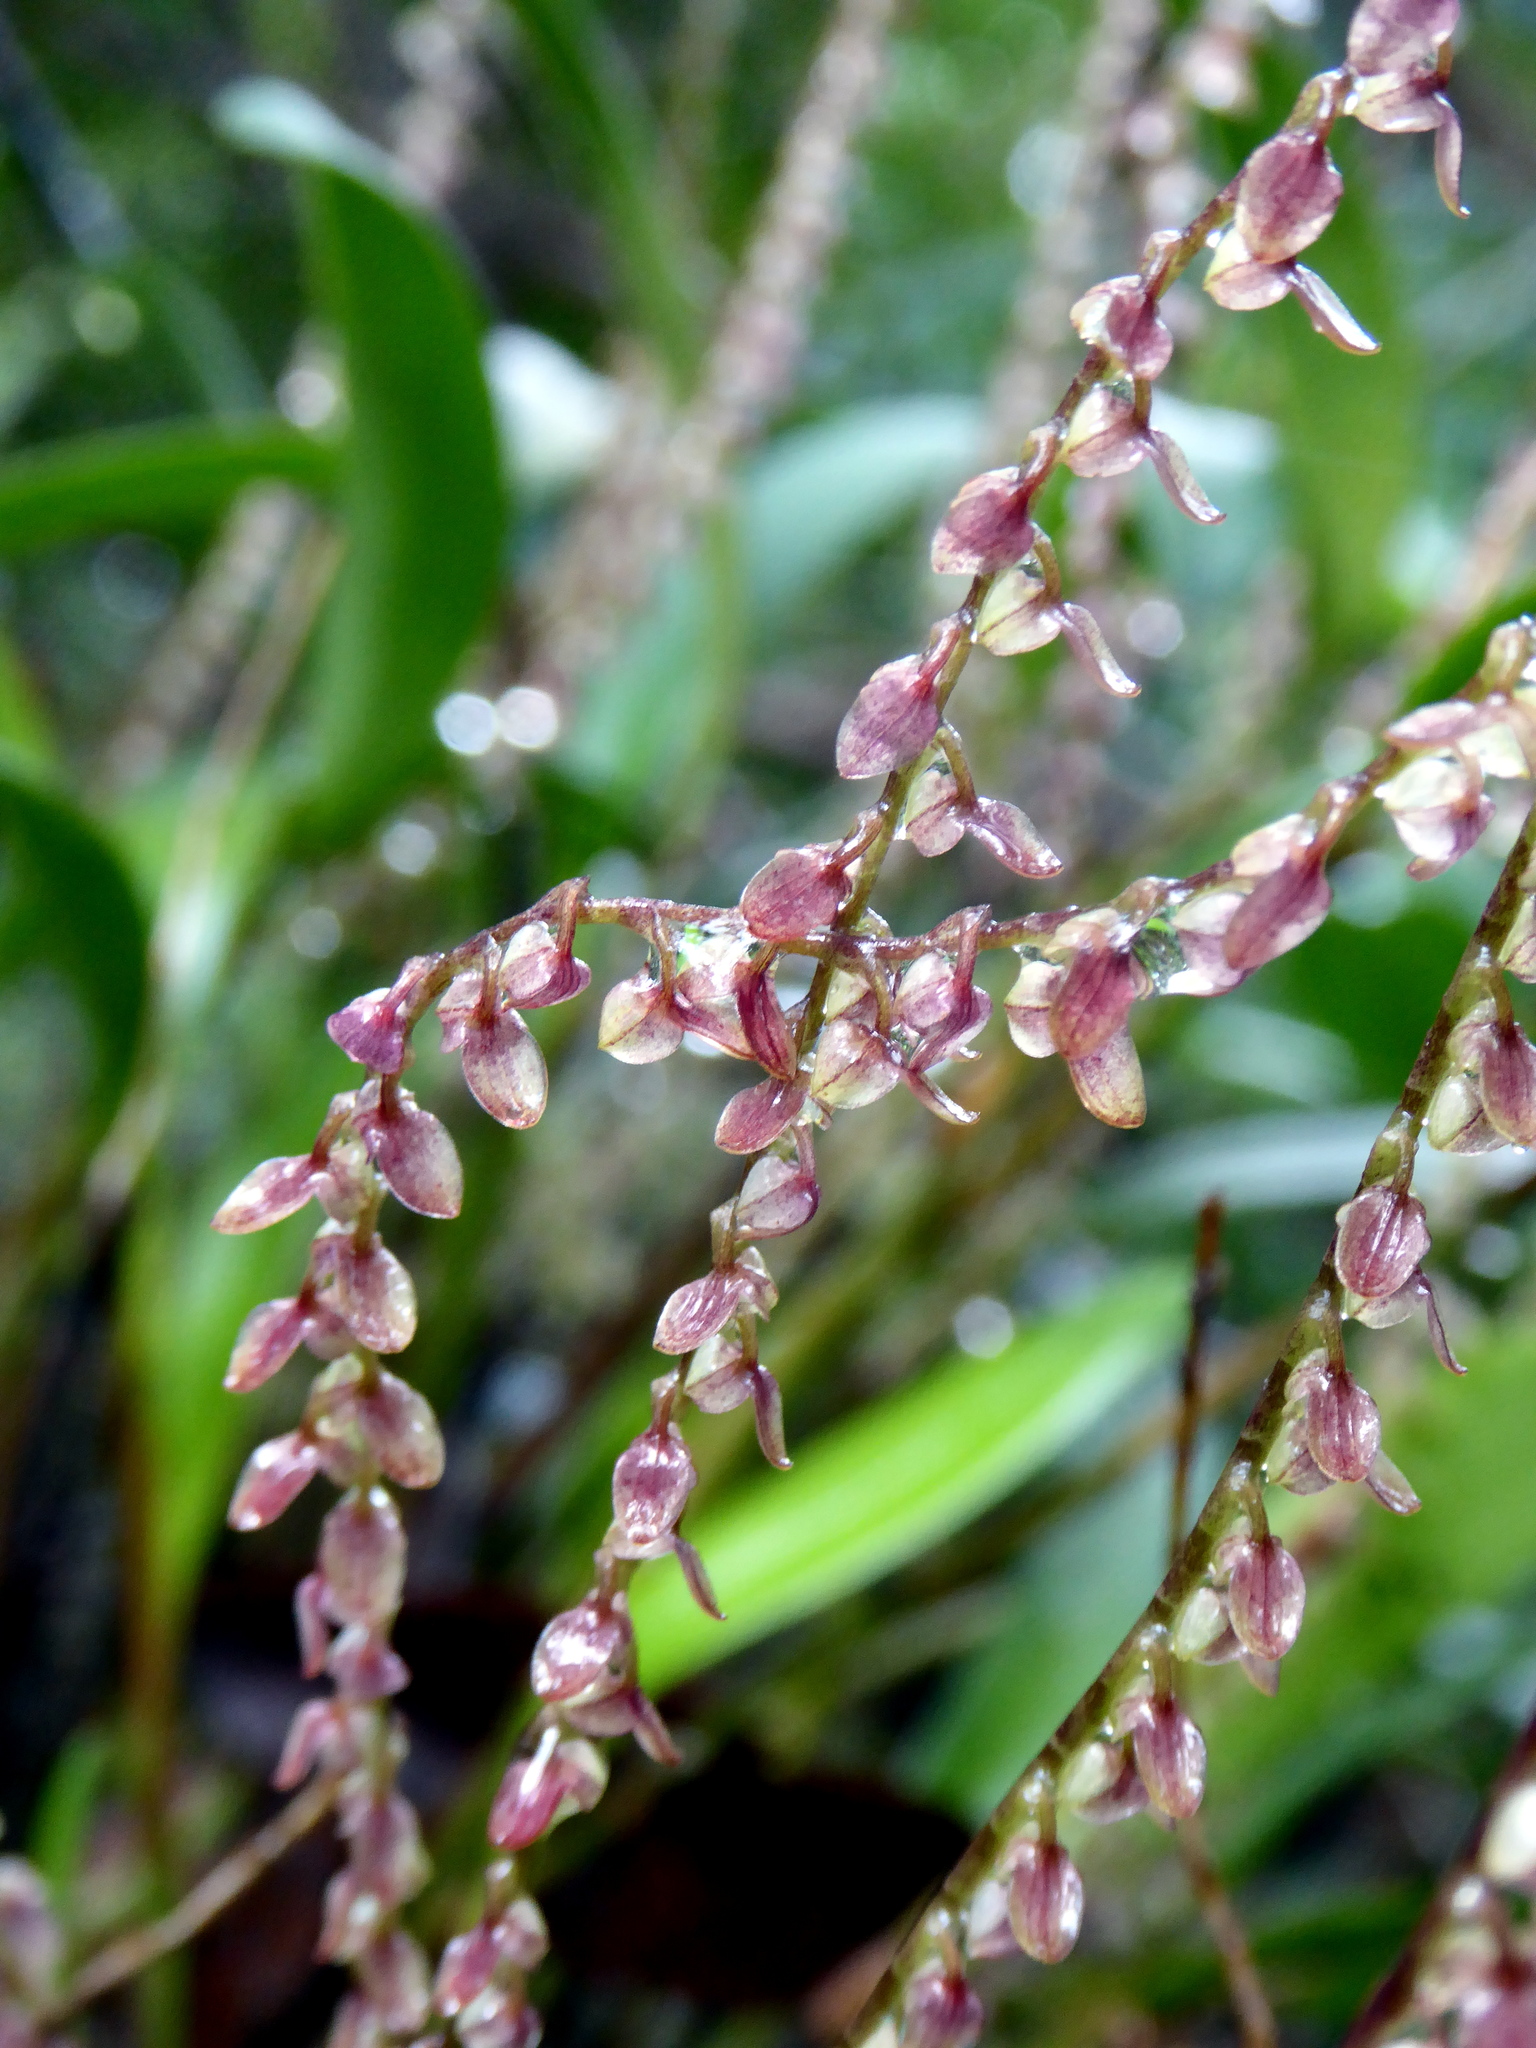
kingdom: Plantae
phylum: Tracheophyta
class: Liliopsida
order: Asparagales
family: Orchidaceae
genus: Stelis
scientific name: Stelis pardipes
